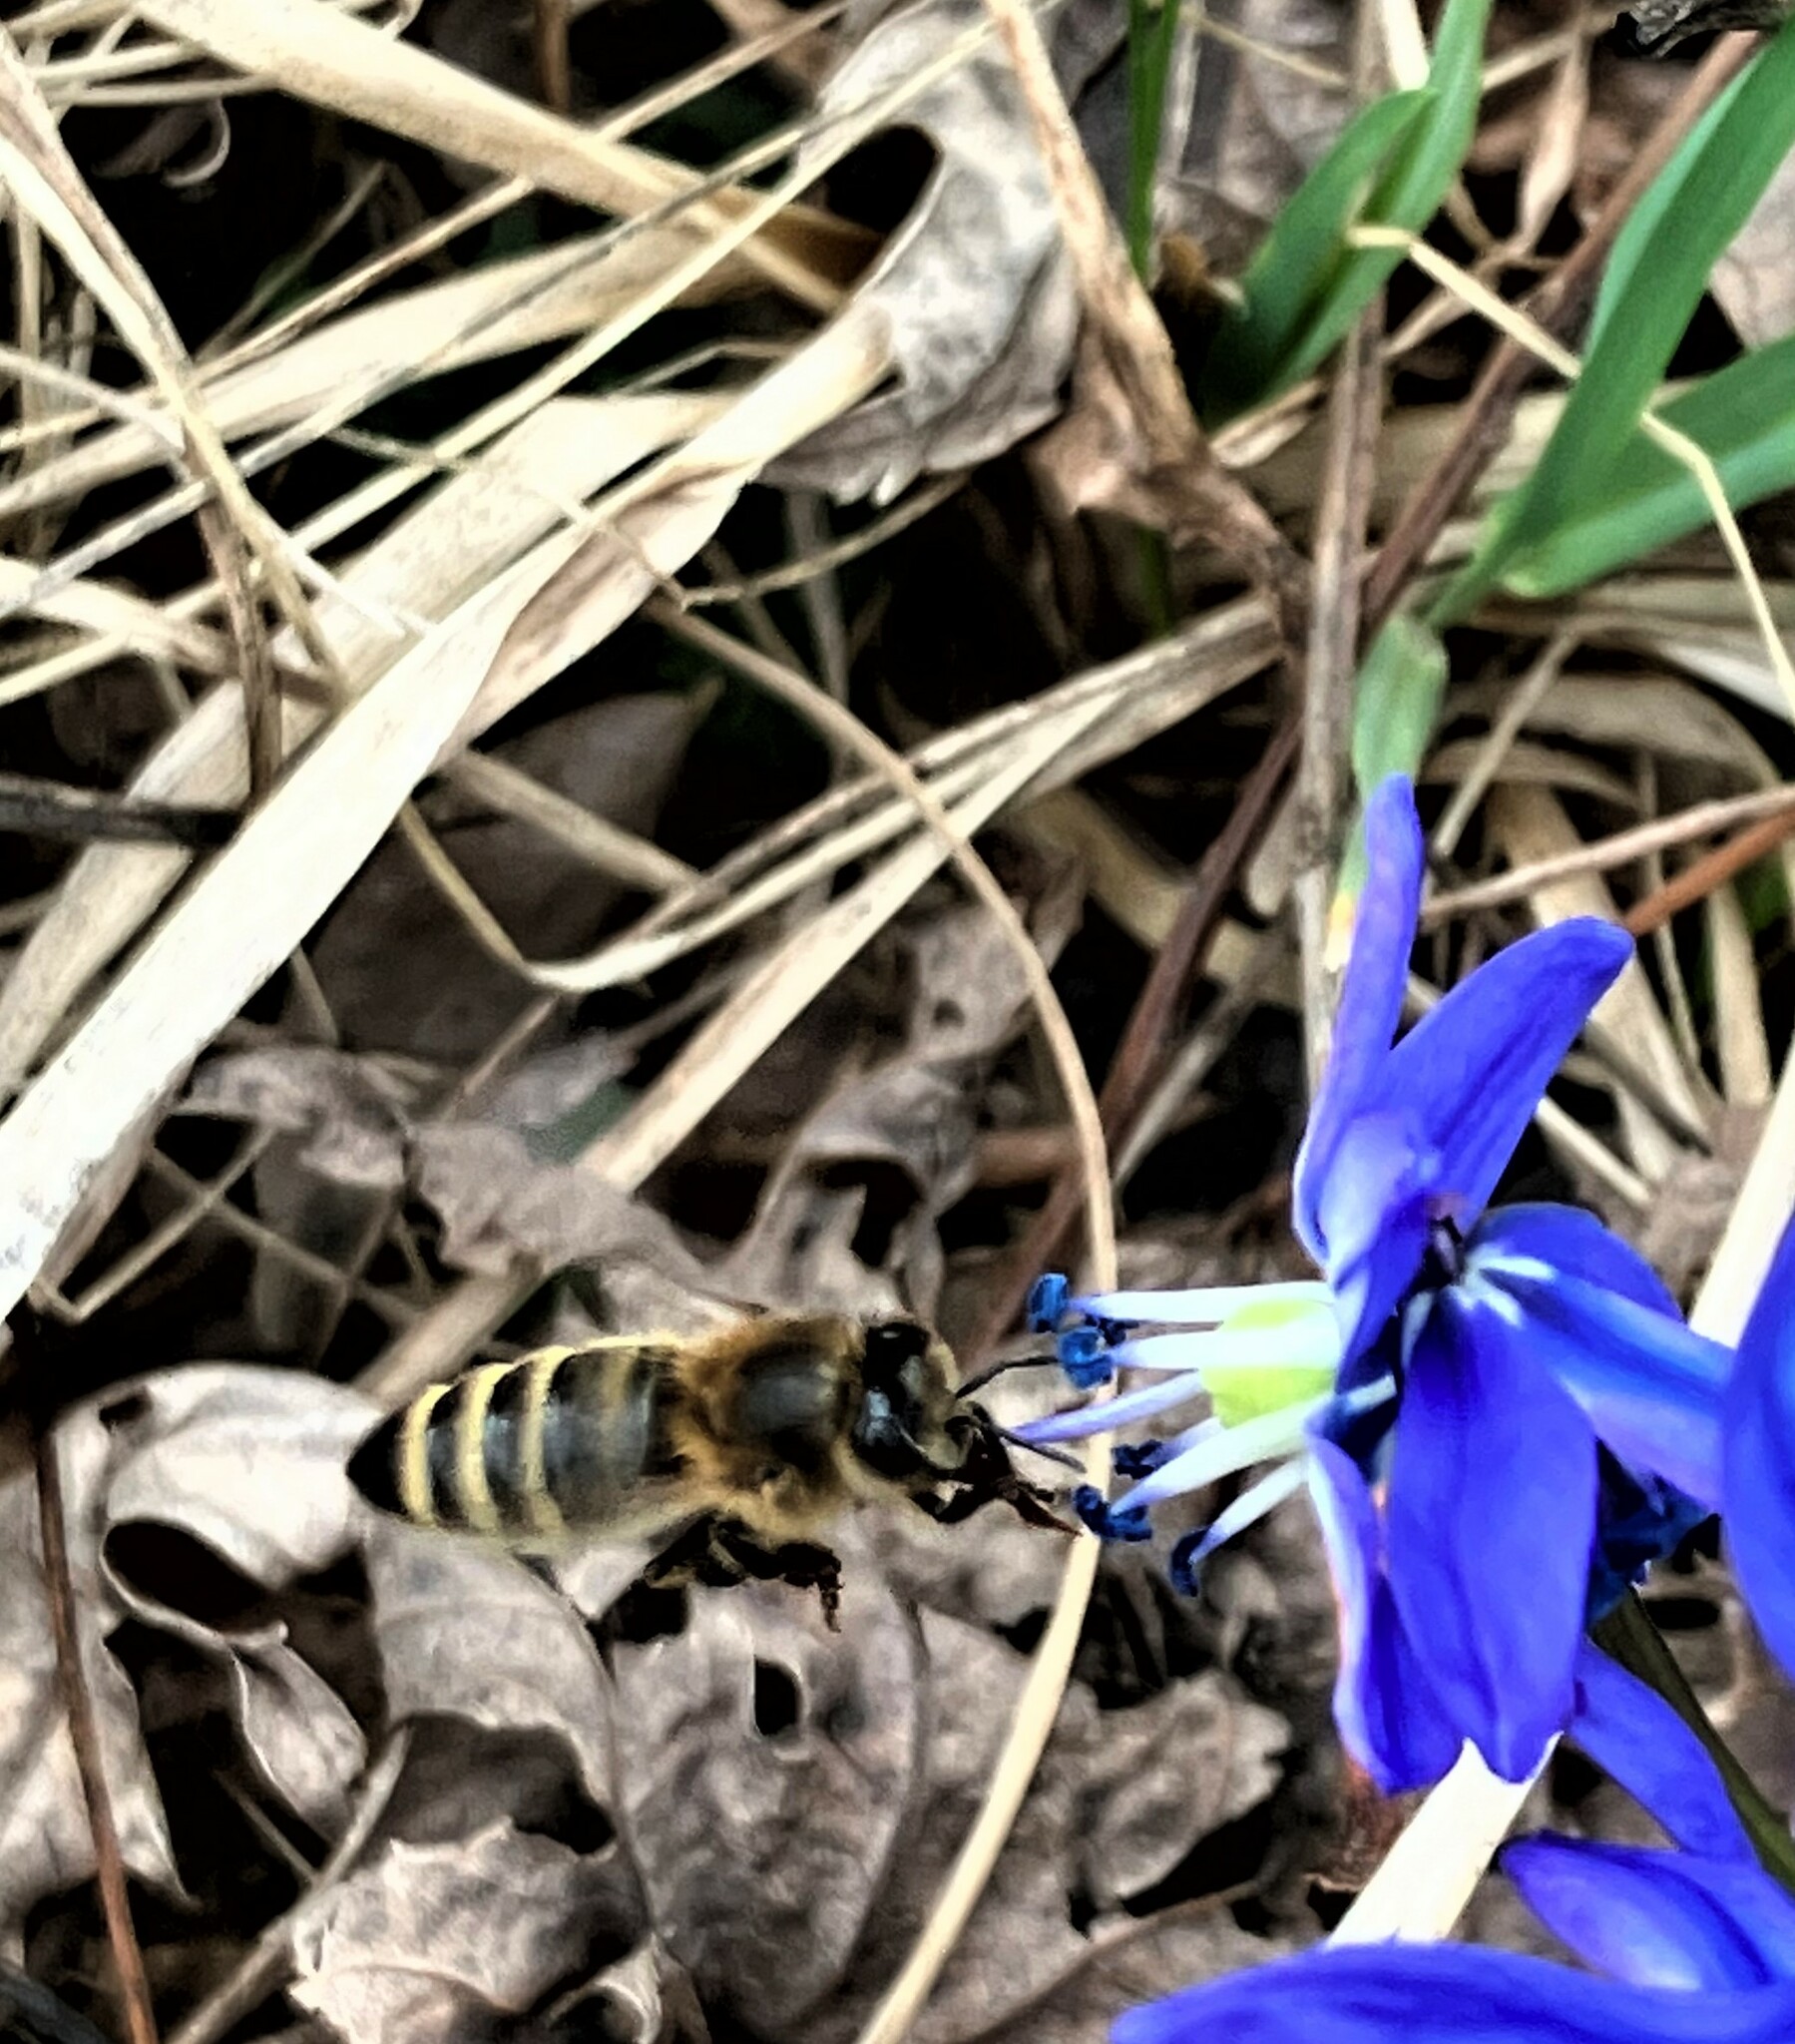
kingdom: Animalia
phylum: Arthropoda
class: Insecta
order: Hymenoptera
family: Apidae
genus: Apis
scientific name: Apis mellifera
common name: Honey bee
